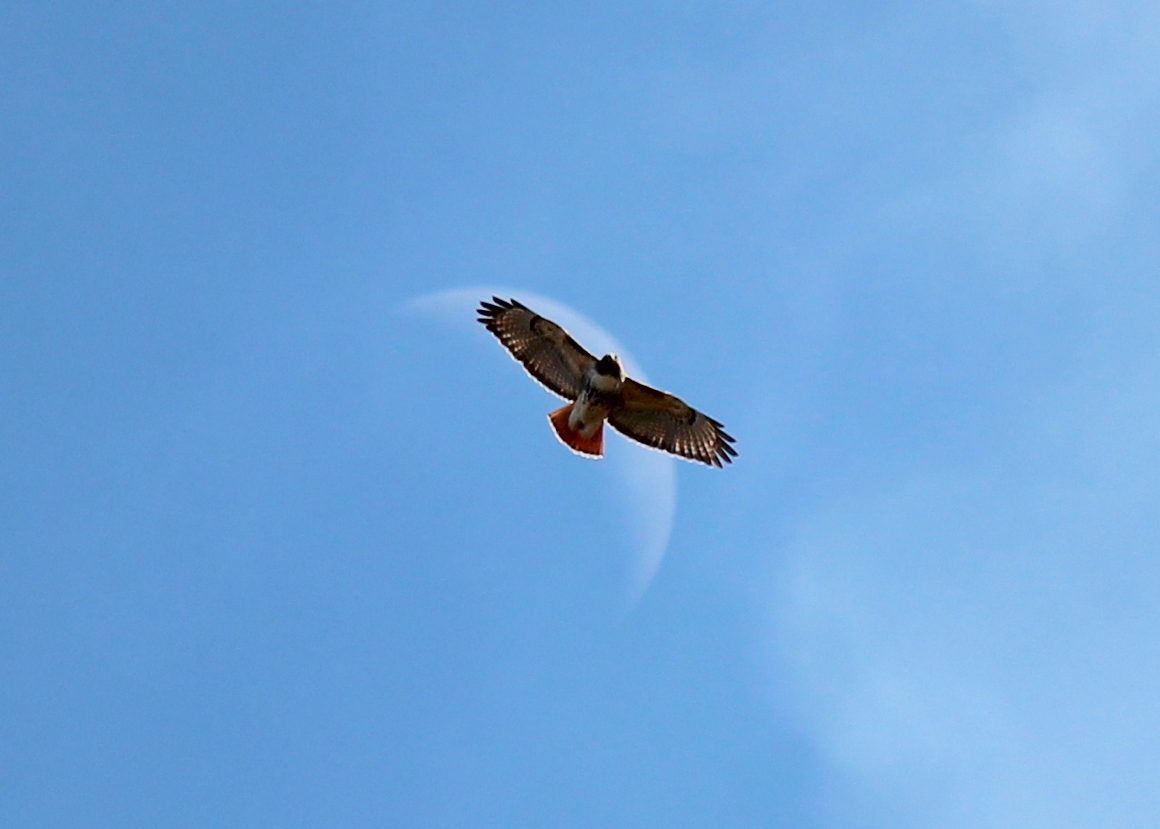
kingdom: Animalia
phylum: Chordata
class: Aves
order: Accipitriformes
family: Accipitridae
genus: Buteo
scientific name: Buteo jamaicensis
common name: Red-tailed hawk
